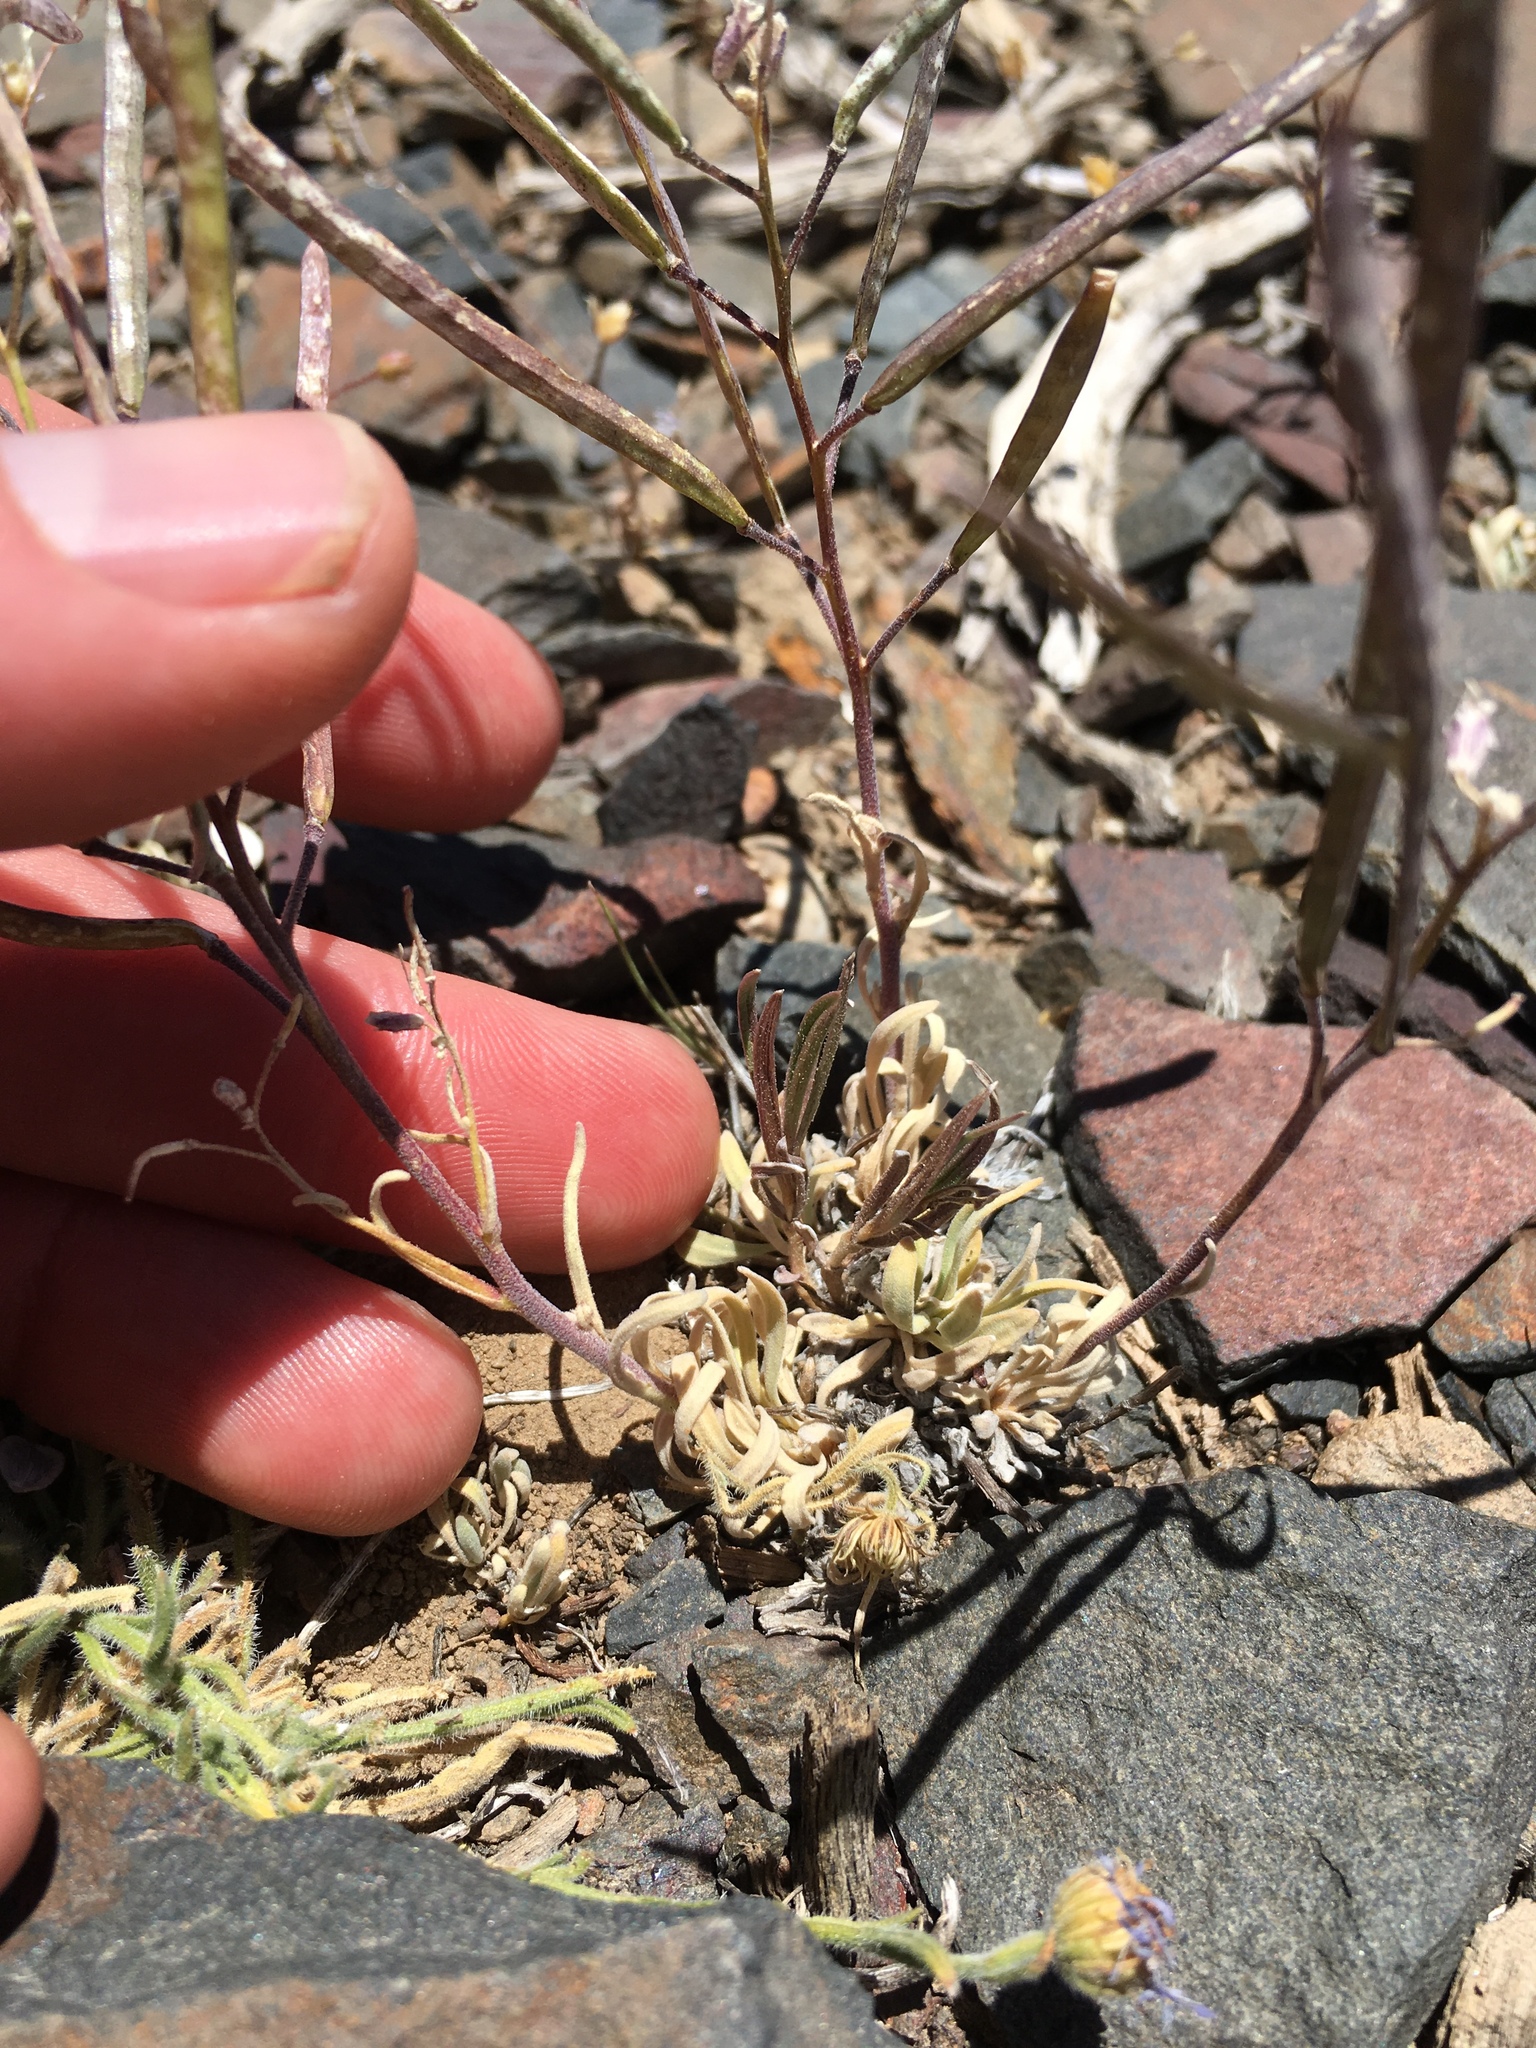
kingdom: Plantae
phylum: Tracheophyta
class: Magnoliopsida
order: Brassicales
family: Brassicaceae
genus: Boechera
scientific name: Boechera dispar
